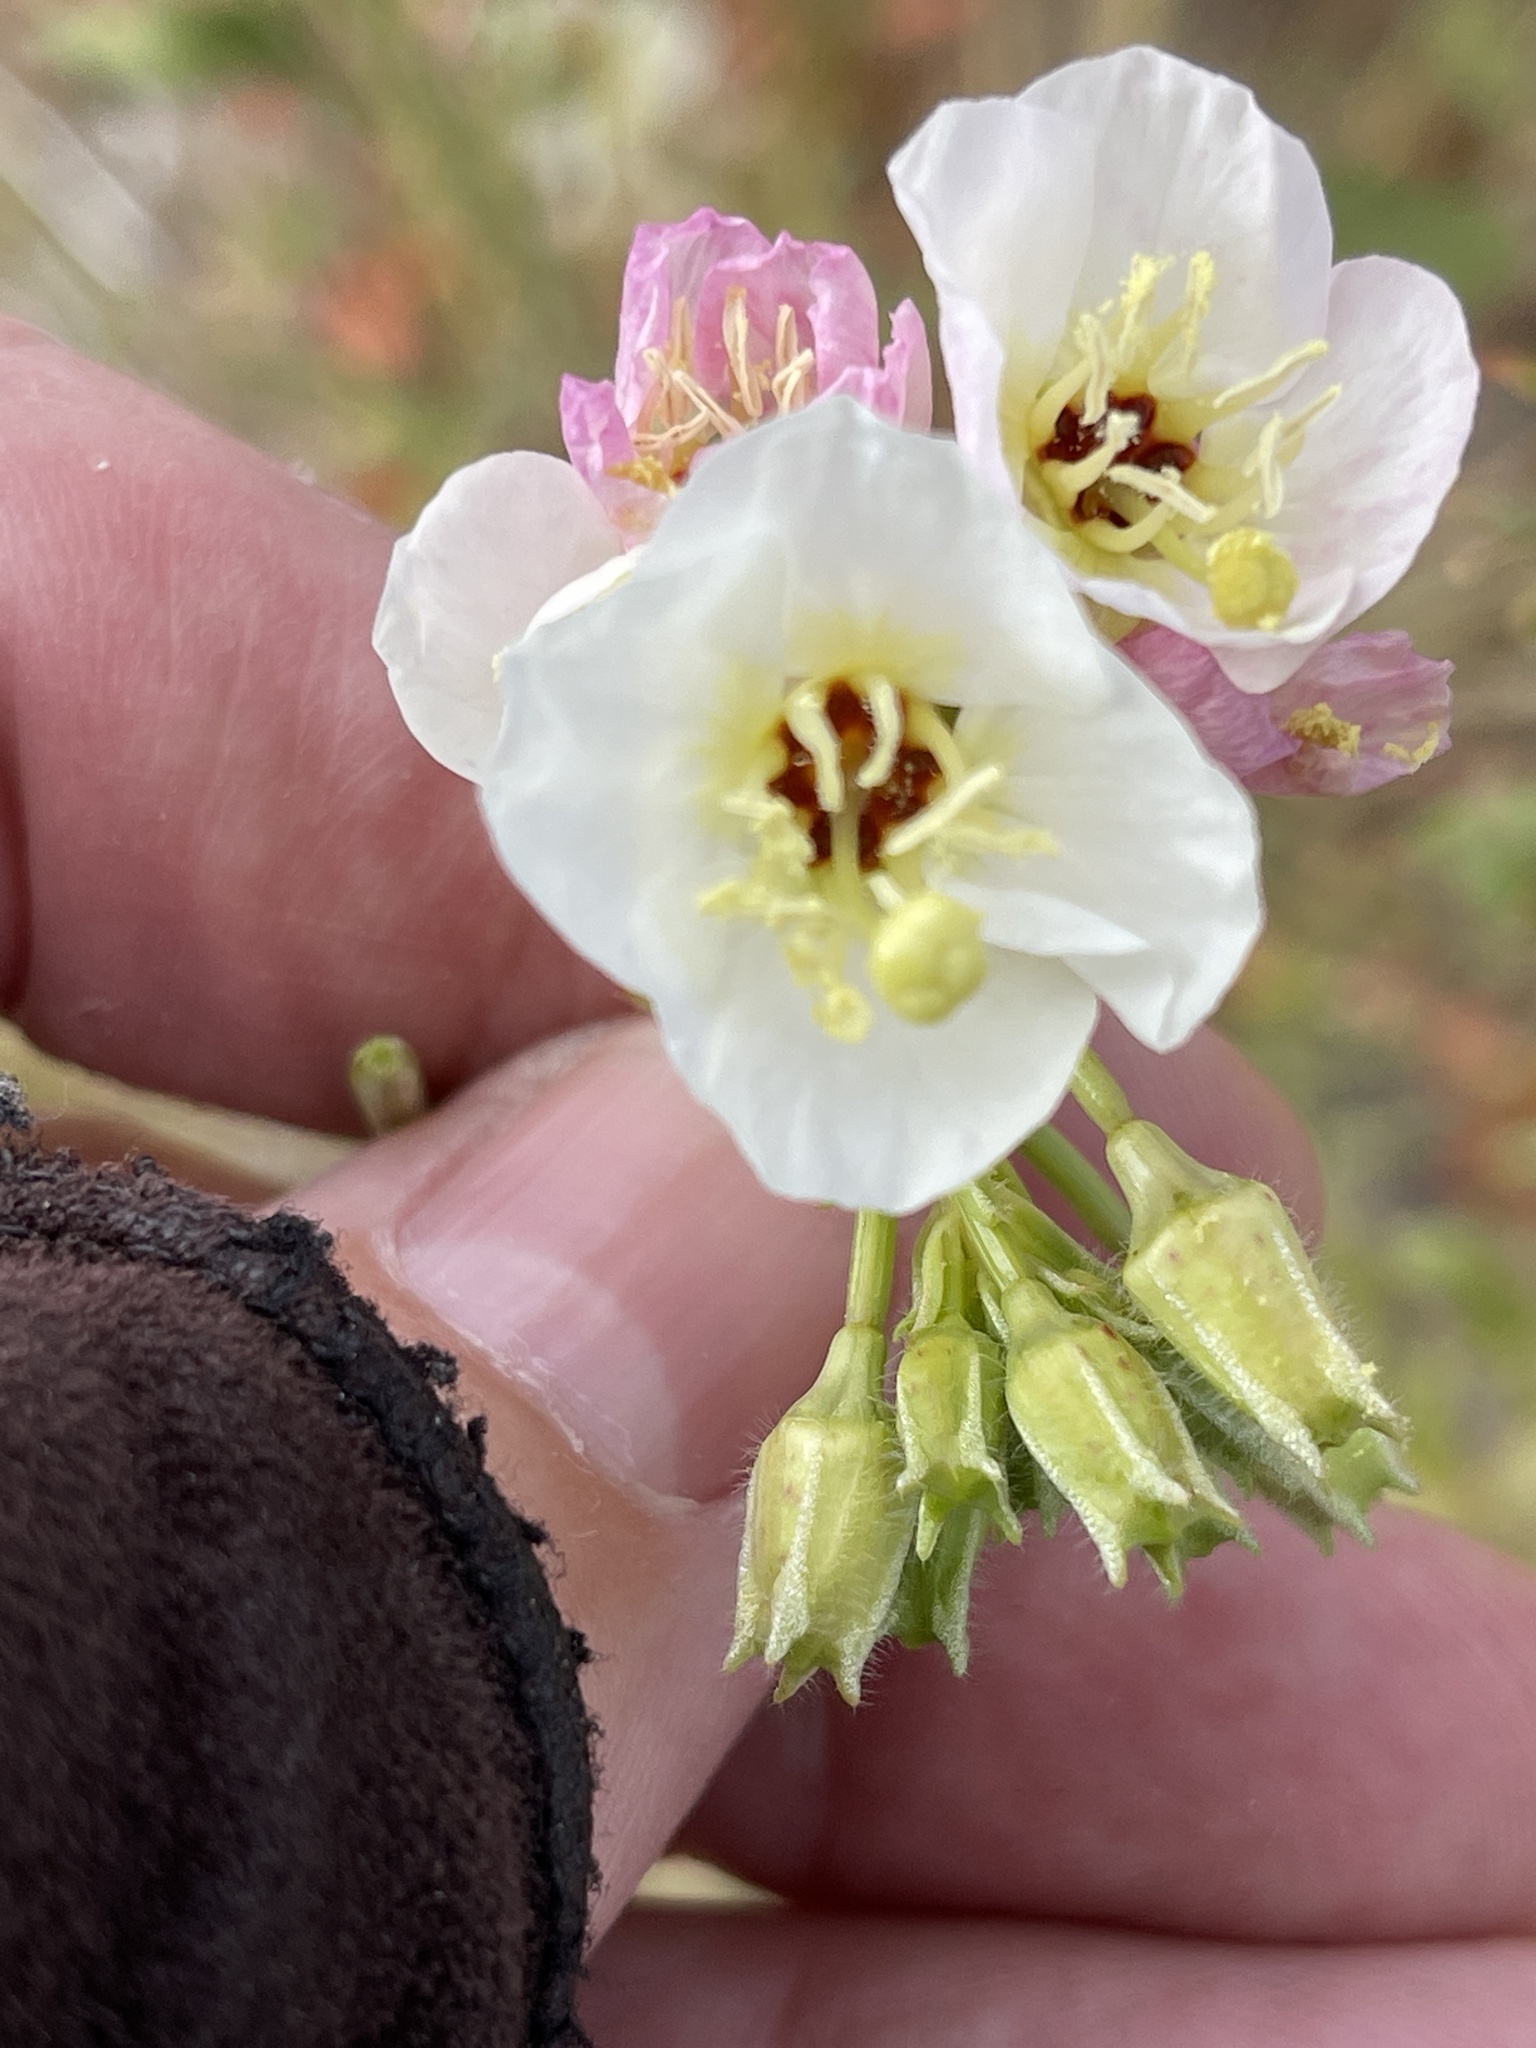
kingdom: Plantae
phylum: Tracheophyta
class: Magnoliopsida
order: Myrtales
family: Onagraceae
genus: Chylismia
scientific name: Chylismia claviformis
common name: Browneyes
